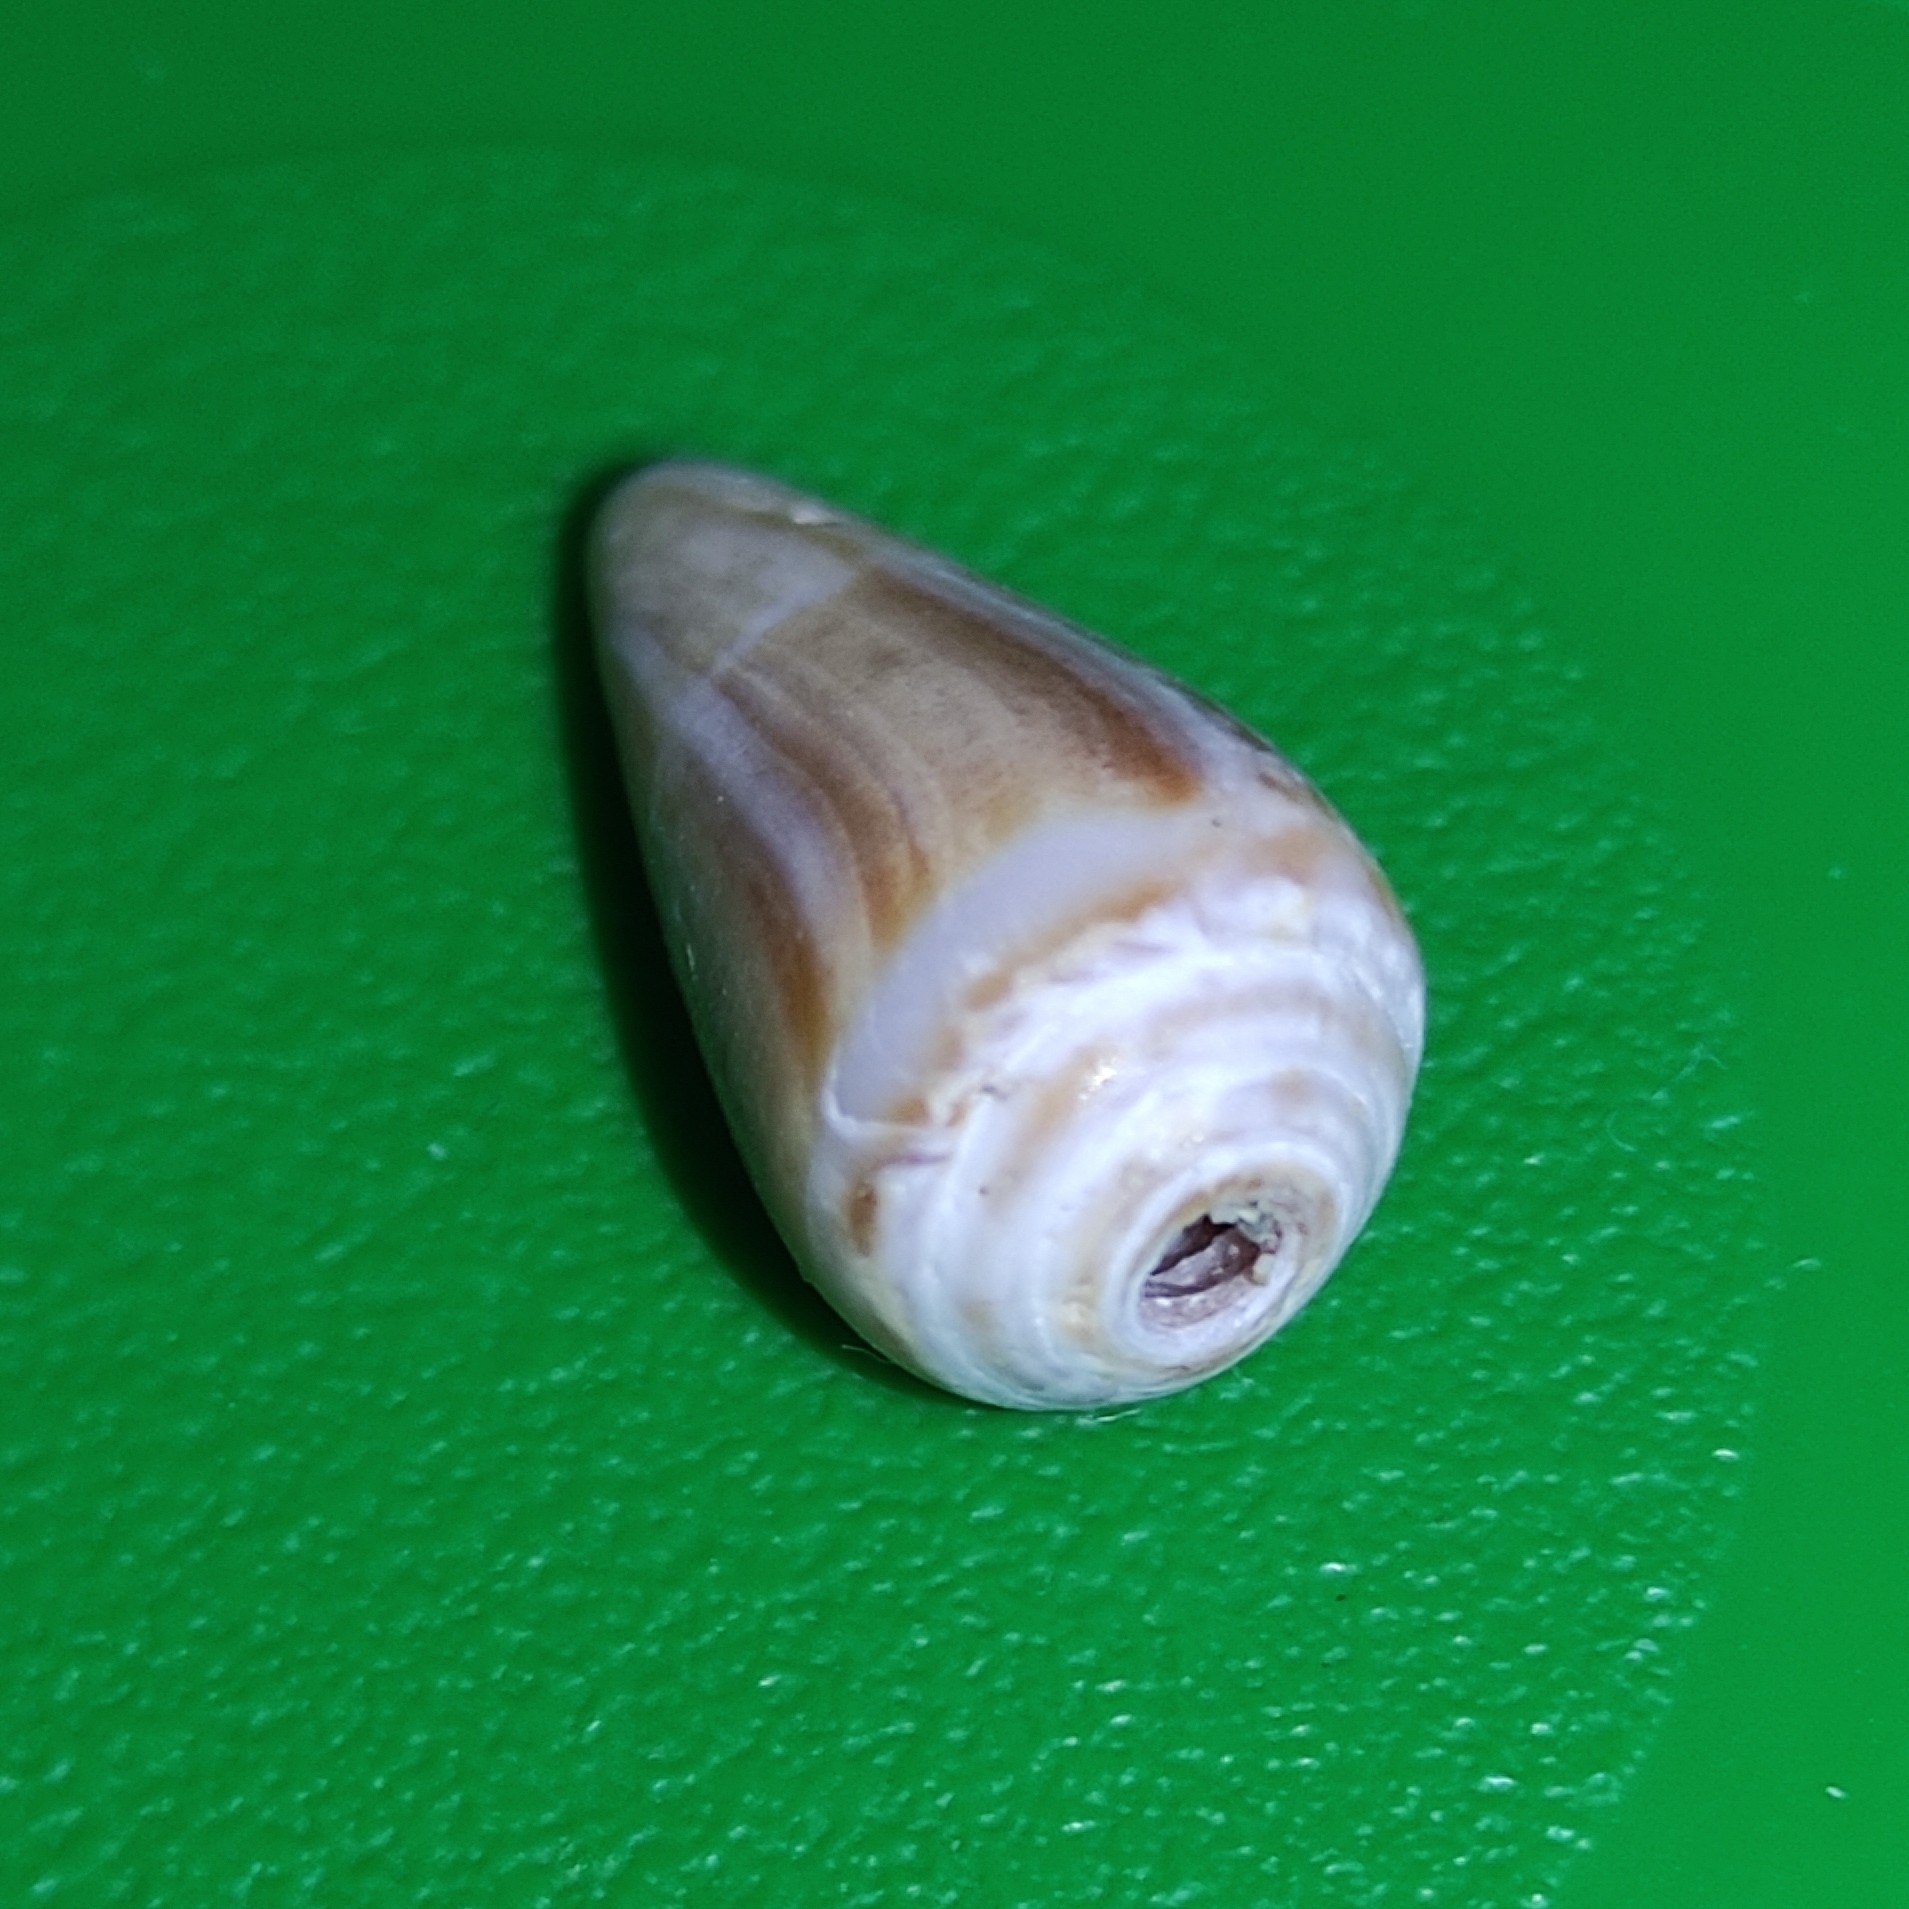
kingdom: Animalia
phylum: Mollusca
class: Gastropoda
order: Neogastropoda
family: Conidae
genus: Conus
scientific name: Conus ventricosus
